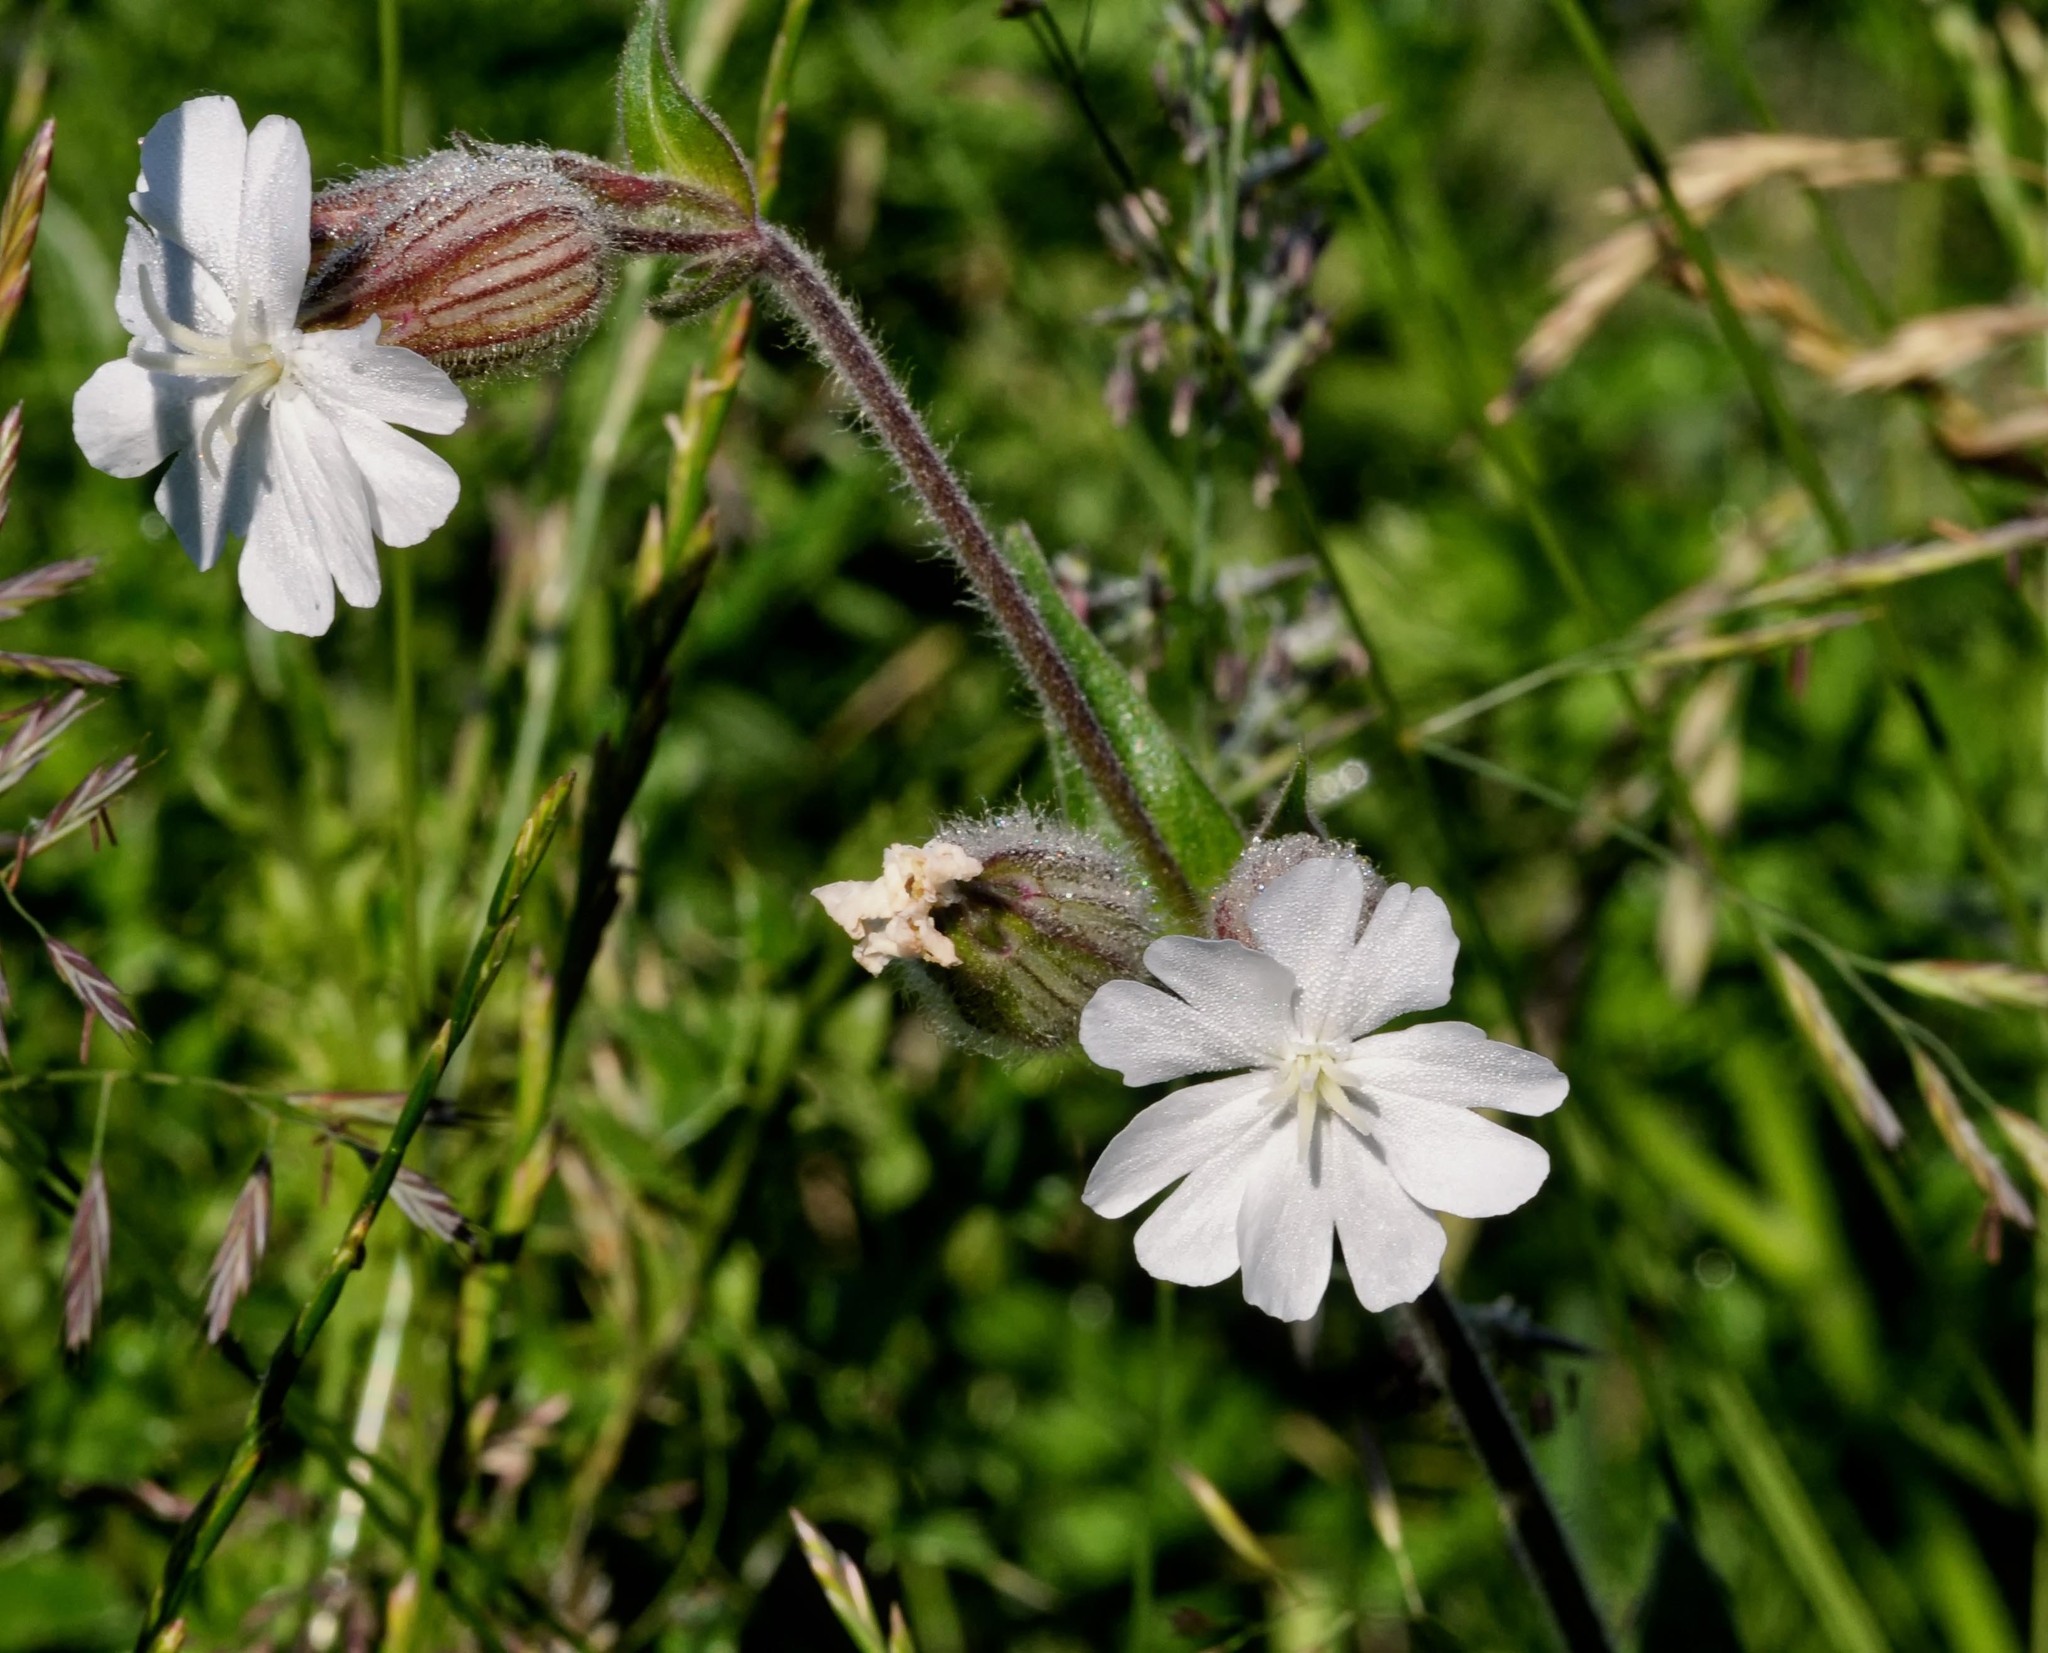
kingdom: Plantae
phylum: Tracheophyta
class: Magnoliopsida
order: Caryophyllales
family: Caryophyllaceae
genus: Silene
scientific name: Silene latifolia
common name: White campion
